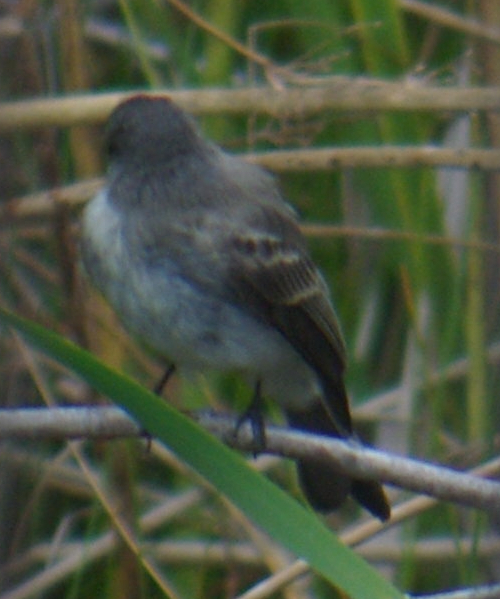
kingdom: Animalia
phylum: Chordata
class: Aves
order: Passeriformes
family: Tyrannidae
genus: Sayornis
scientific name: Sayornis phoebe
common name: Eastern phoebe
